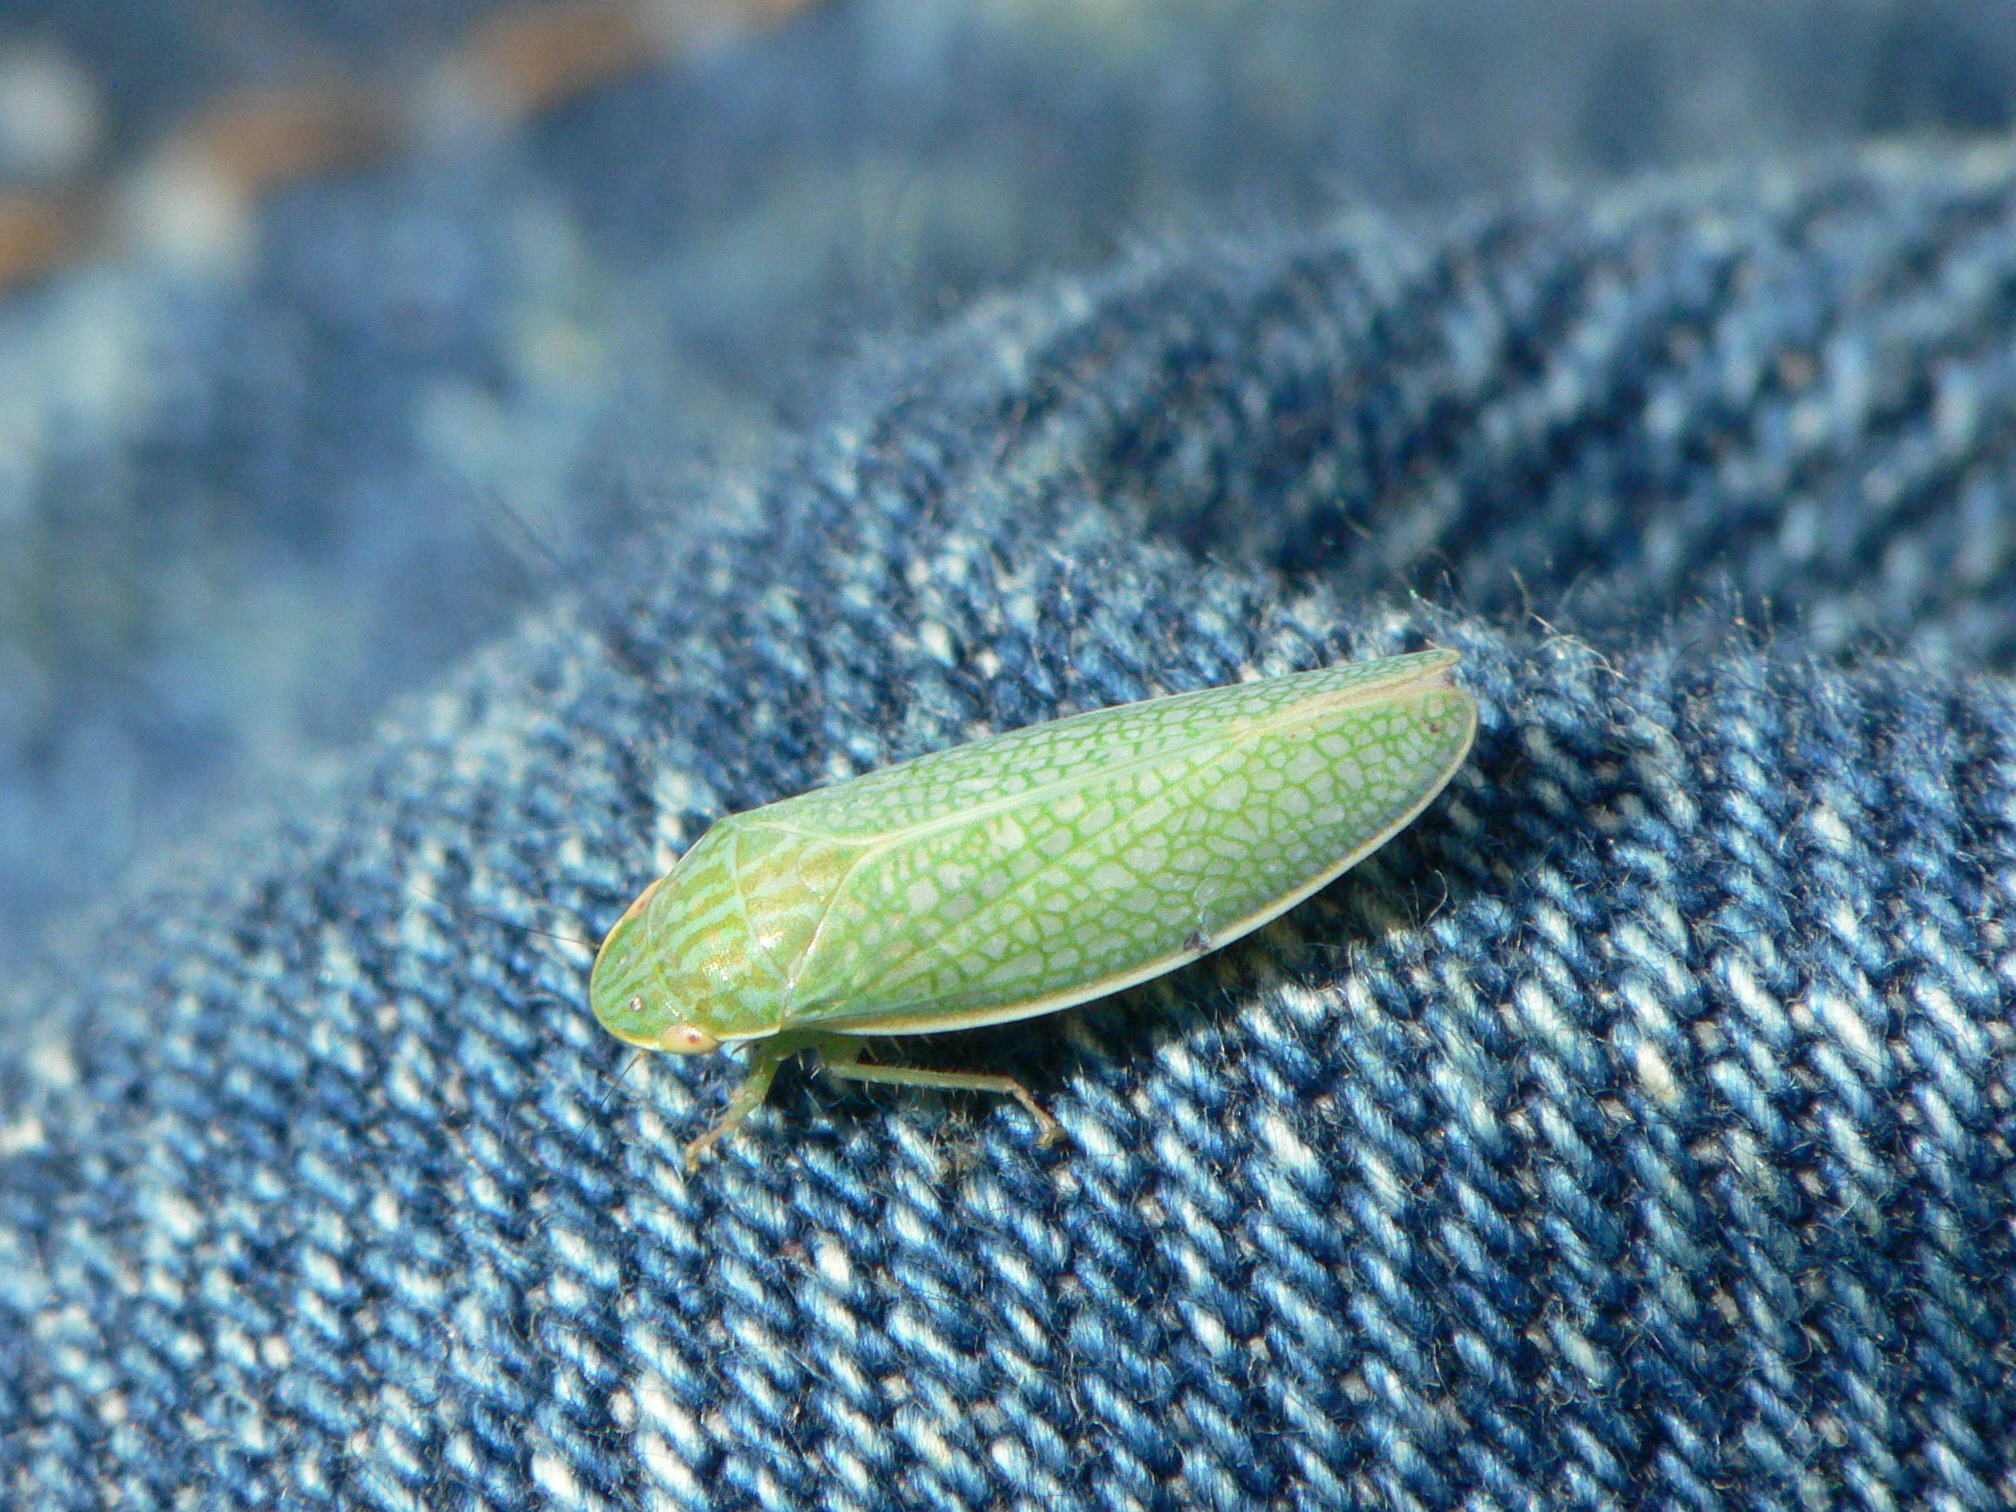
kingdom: Animalia
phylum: Arthropoda
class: Insecta
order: Hemiptera
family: Cicadellidae
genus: Gyponana
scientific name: Gyponana procera
